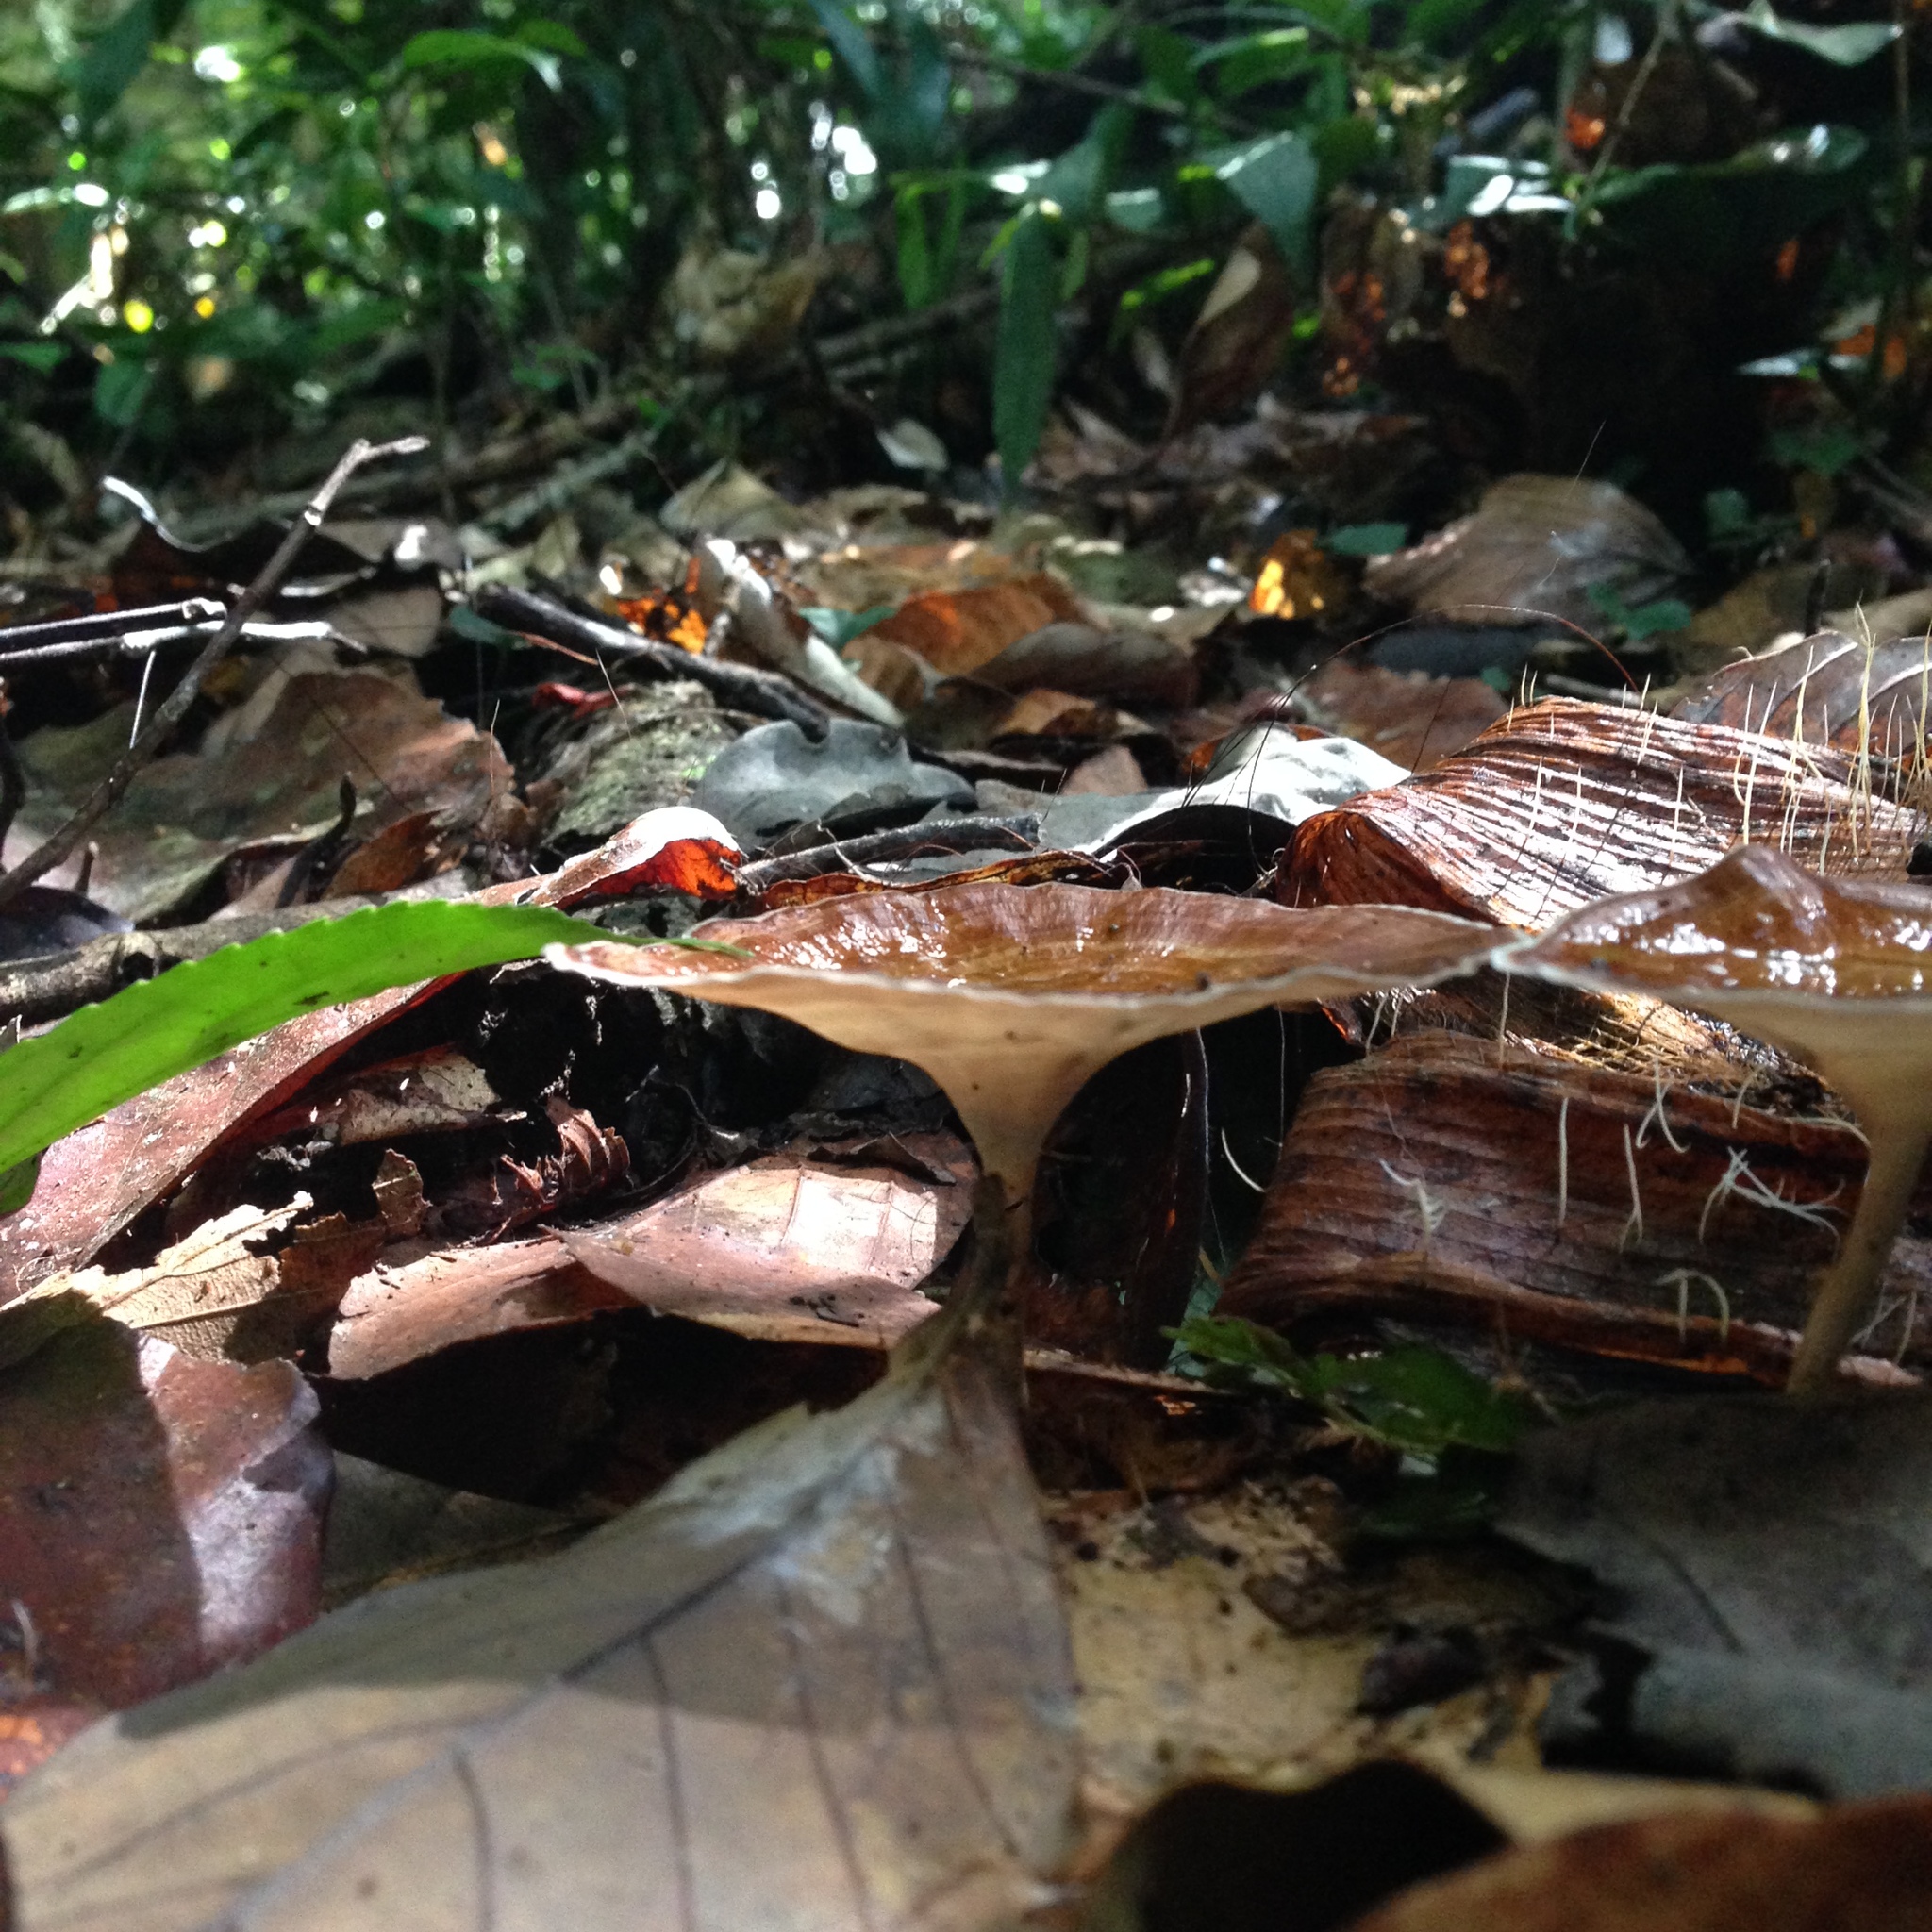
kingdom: Fungi
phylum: Basidiomycota
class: Agaricomycetes
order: Polyporales
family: Polyporaceae
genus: Microporus
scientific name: Microporus xanthopus
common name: Yellow-stemmed micropore
